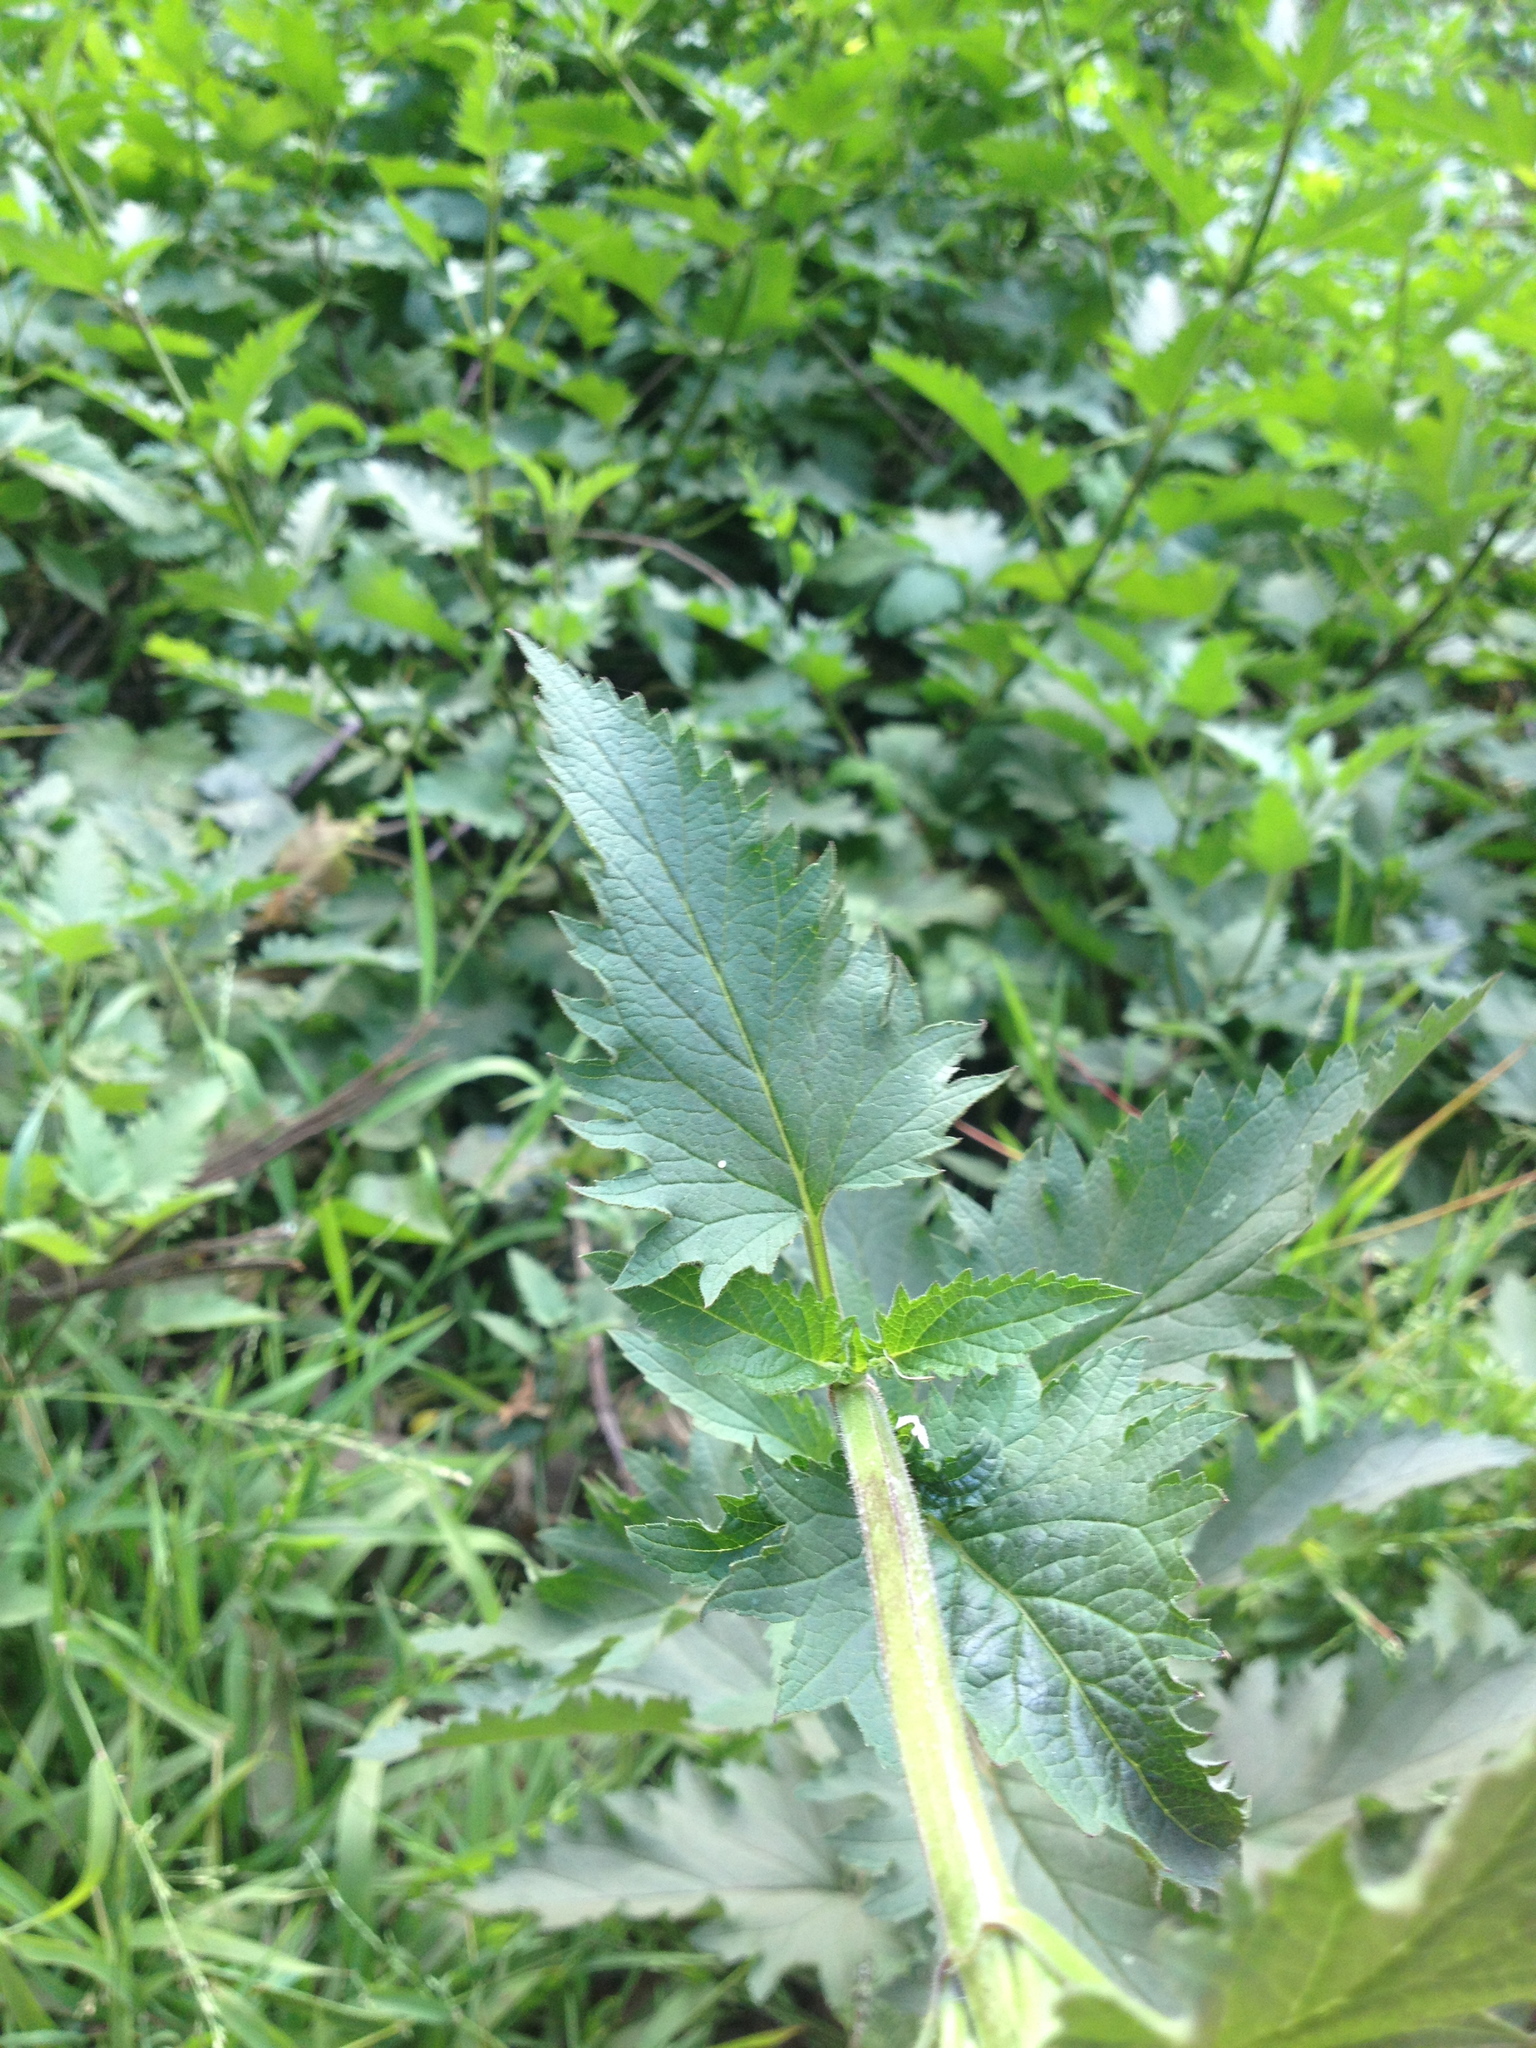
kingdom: Plantae
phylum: Tracheophyta
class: Magnoliopsida
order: Lamiales
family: Scrophulariaceae
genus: Scrophularia
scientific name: Scrophularia californica
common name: California figwort
